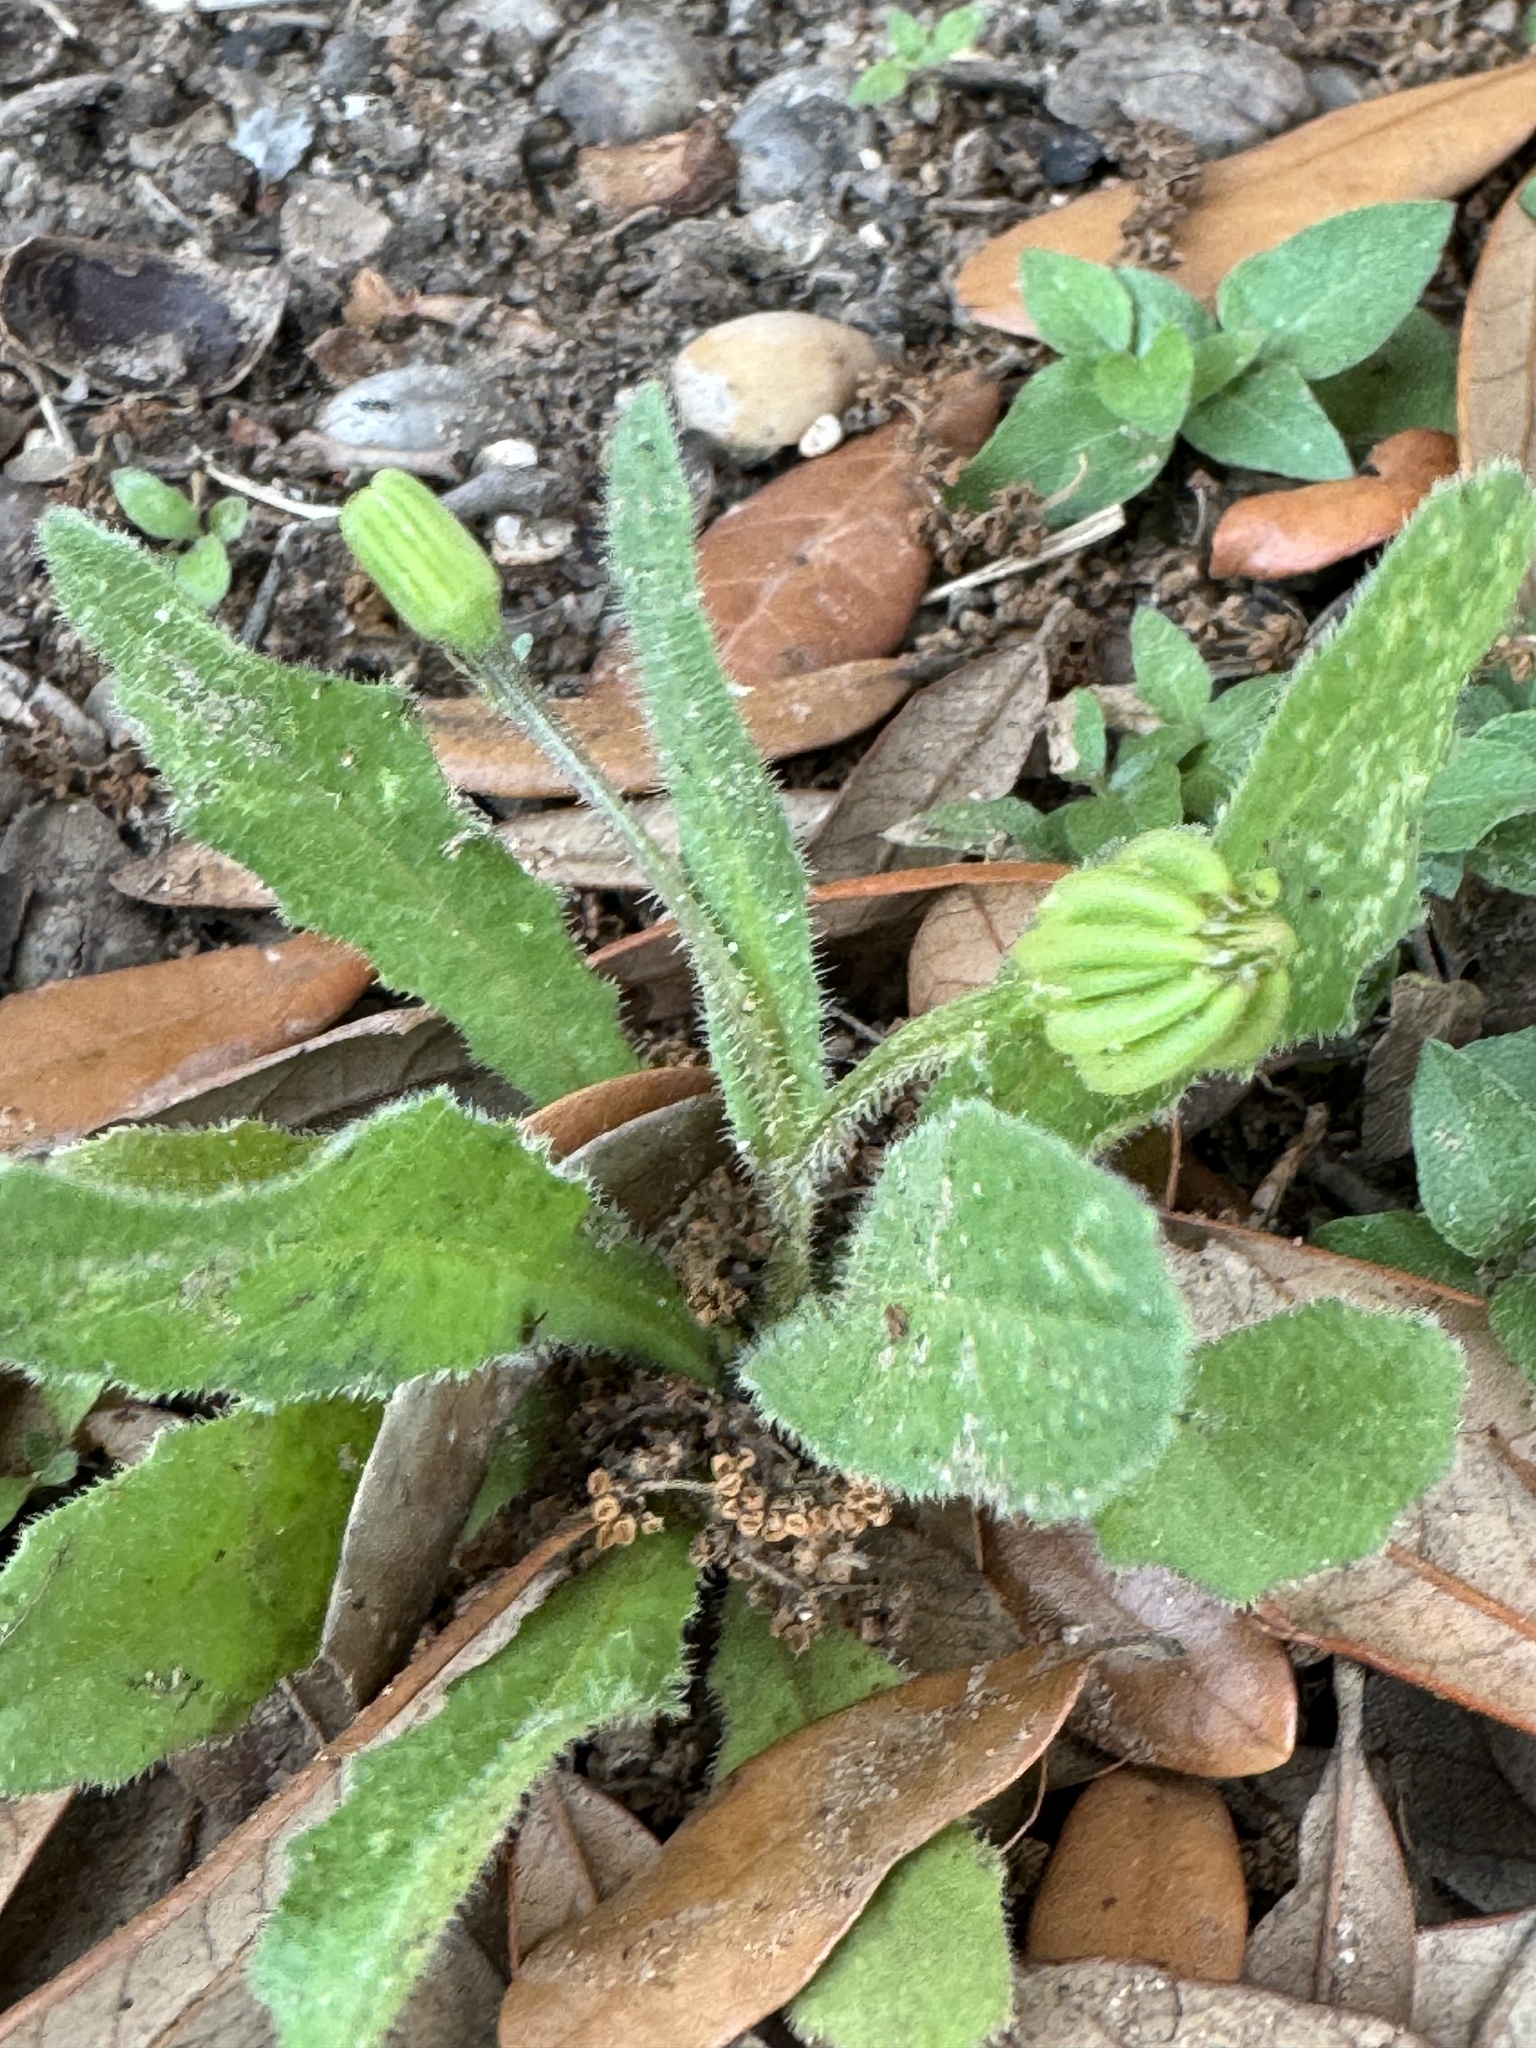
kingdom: Plantae
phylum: Tracheophyta
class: Magnoliopsida
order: Asterales
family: Asteraceae
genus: Hedypnois
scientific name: Hedypnois rhagadioloides
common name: Cretan weed
